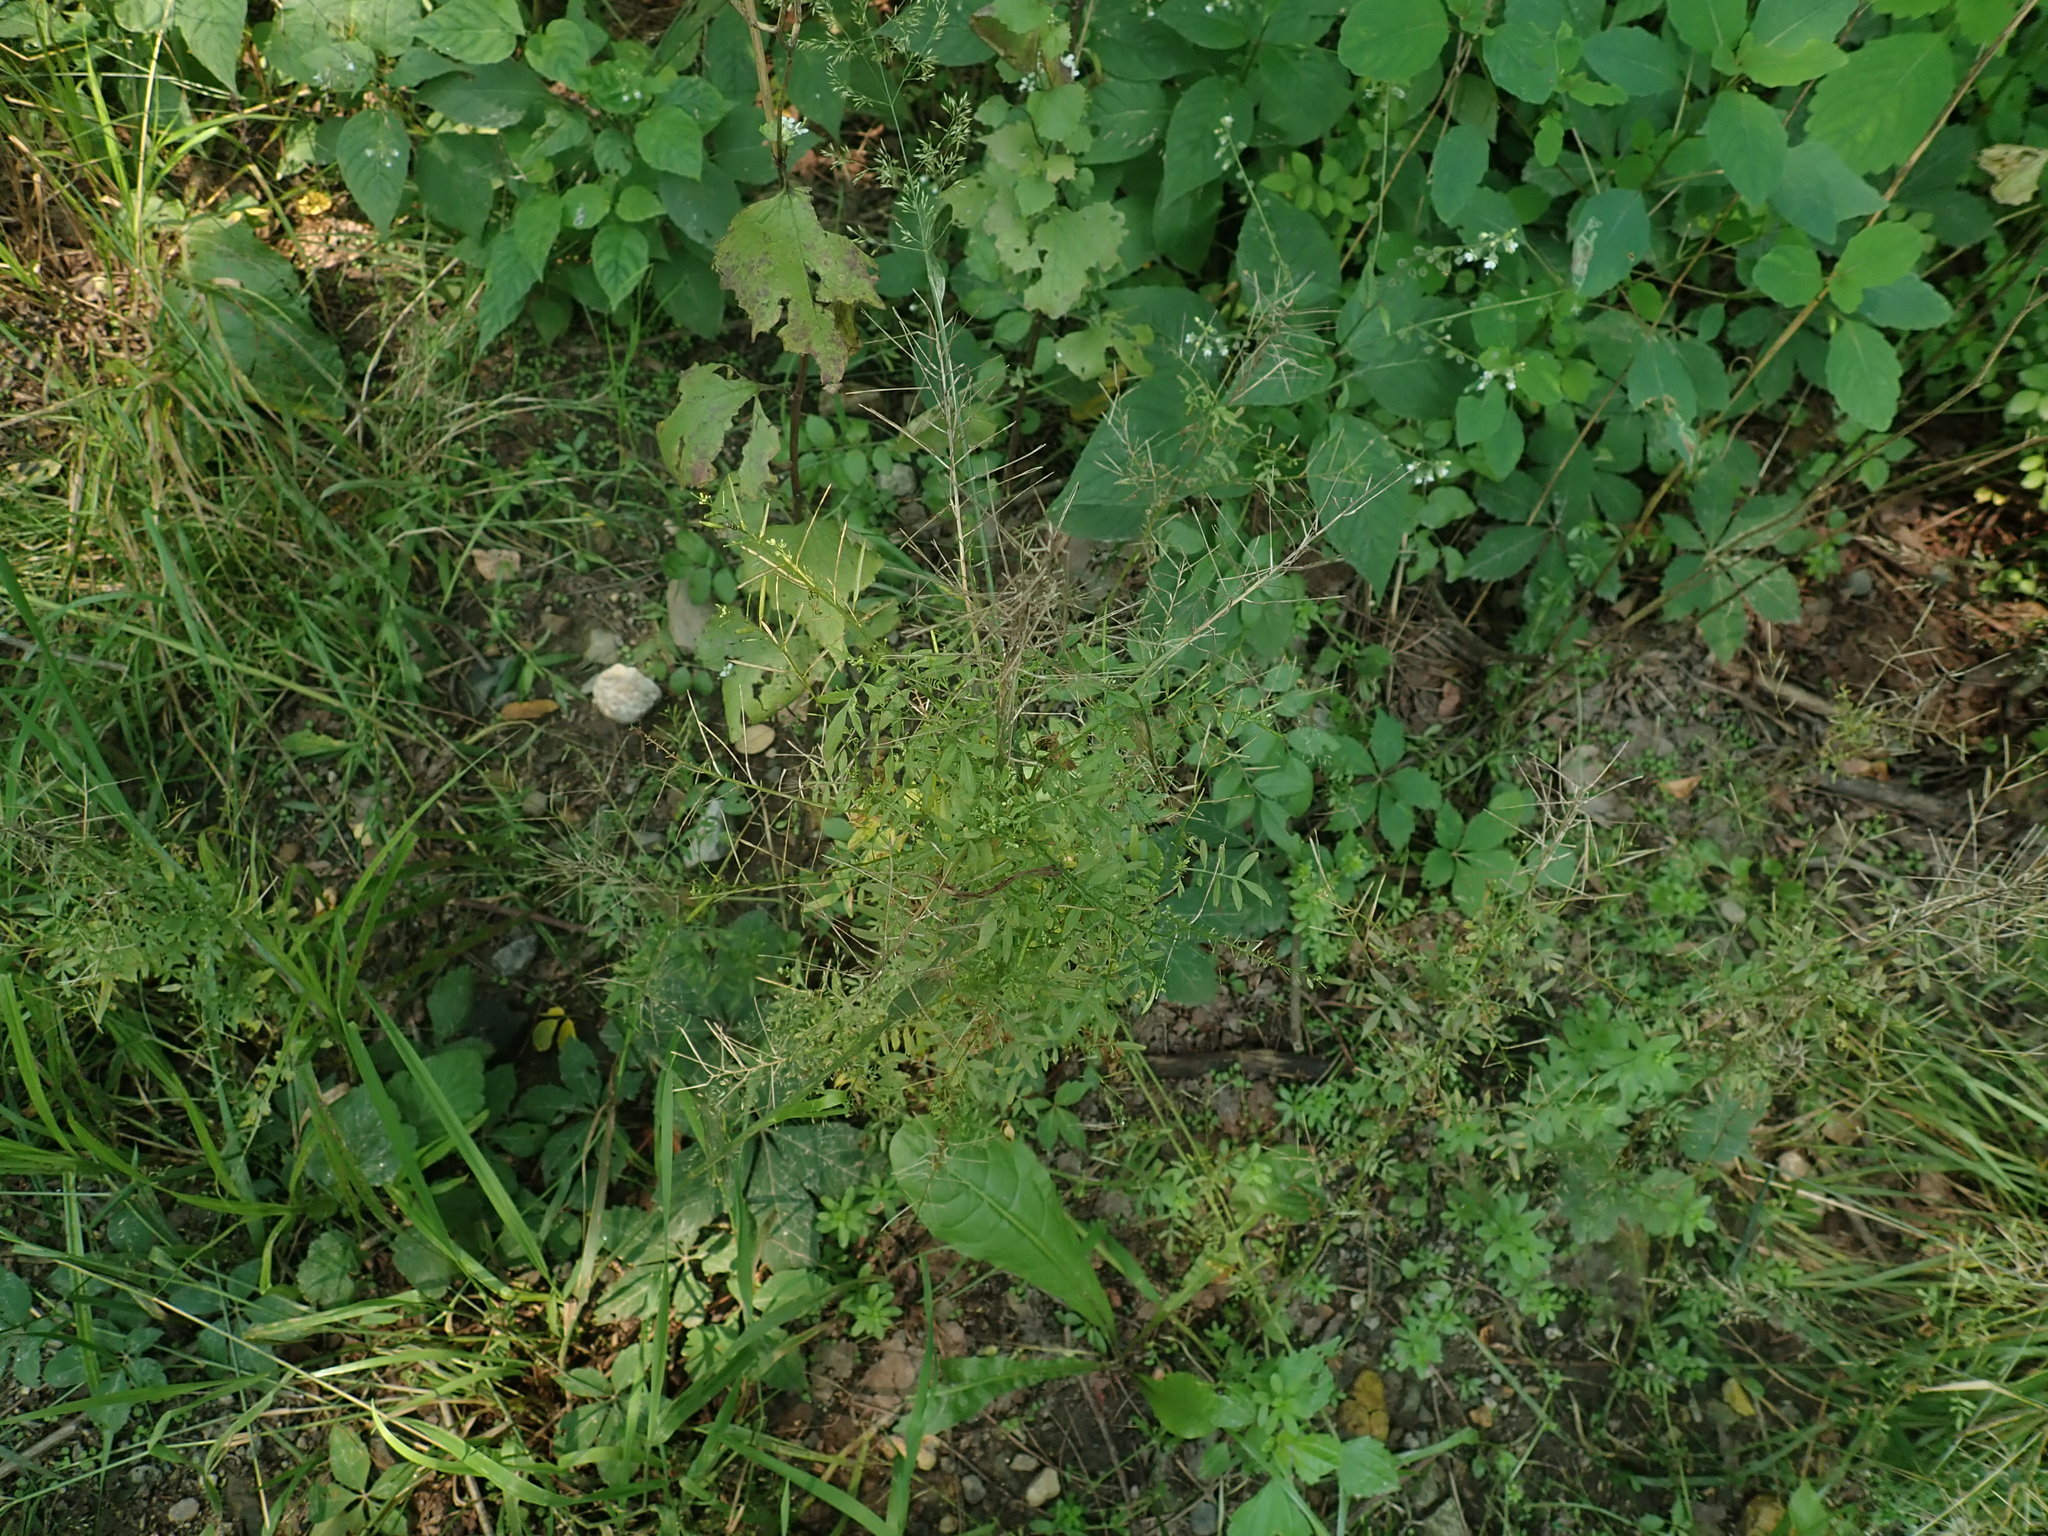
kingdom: Plantae
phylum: Tracheophyta
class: Magnoliopsida
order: Brassicales
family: Brassicaceae
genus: Cardamine
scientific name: Cardamine impatiens
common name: Narrow-leaved bitter-cress
